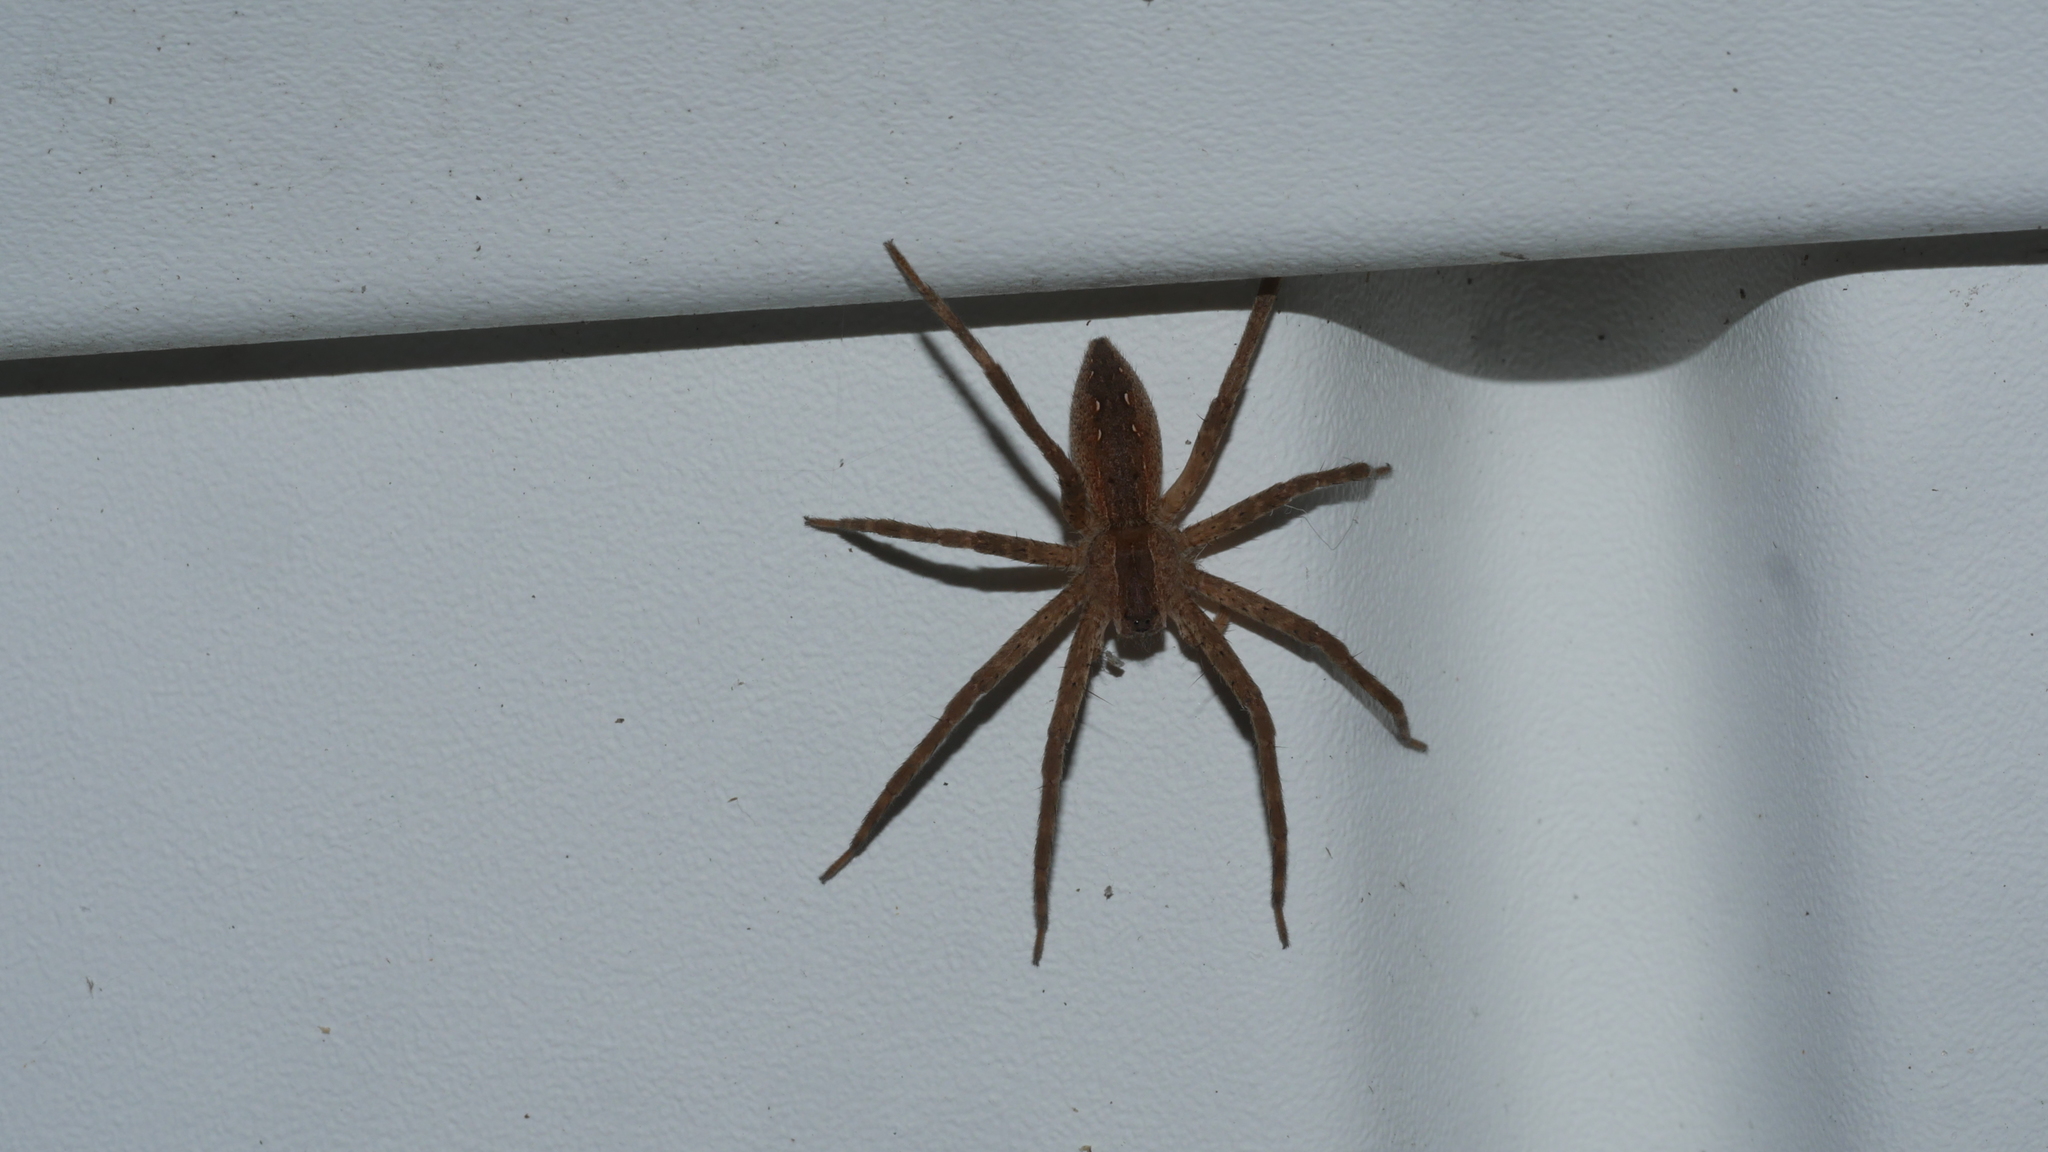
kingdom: Animalia
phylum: Arthropoda
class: Arachnida
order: Araneae
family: Pisauridae
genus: Pisaurina
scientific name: Pisaurina mira
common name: American nursery web spider
